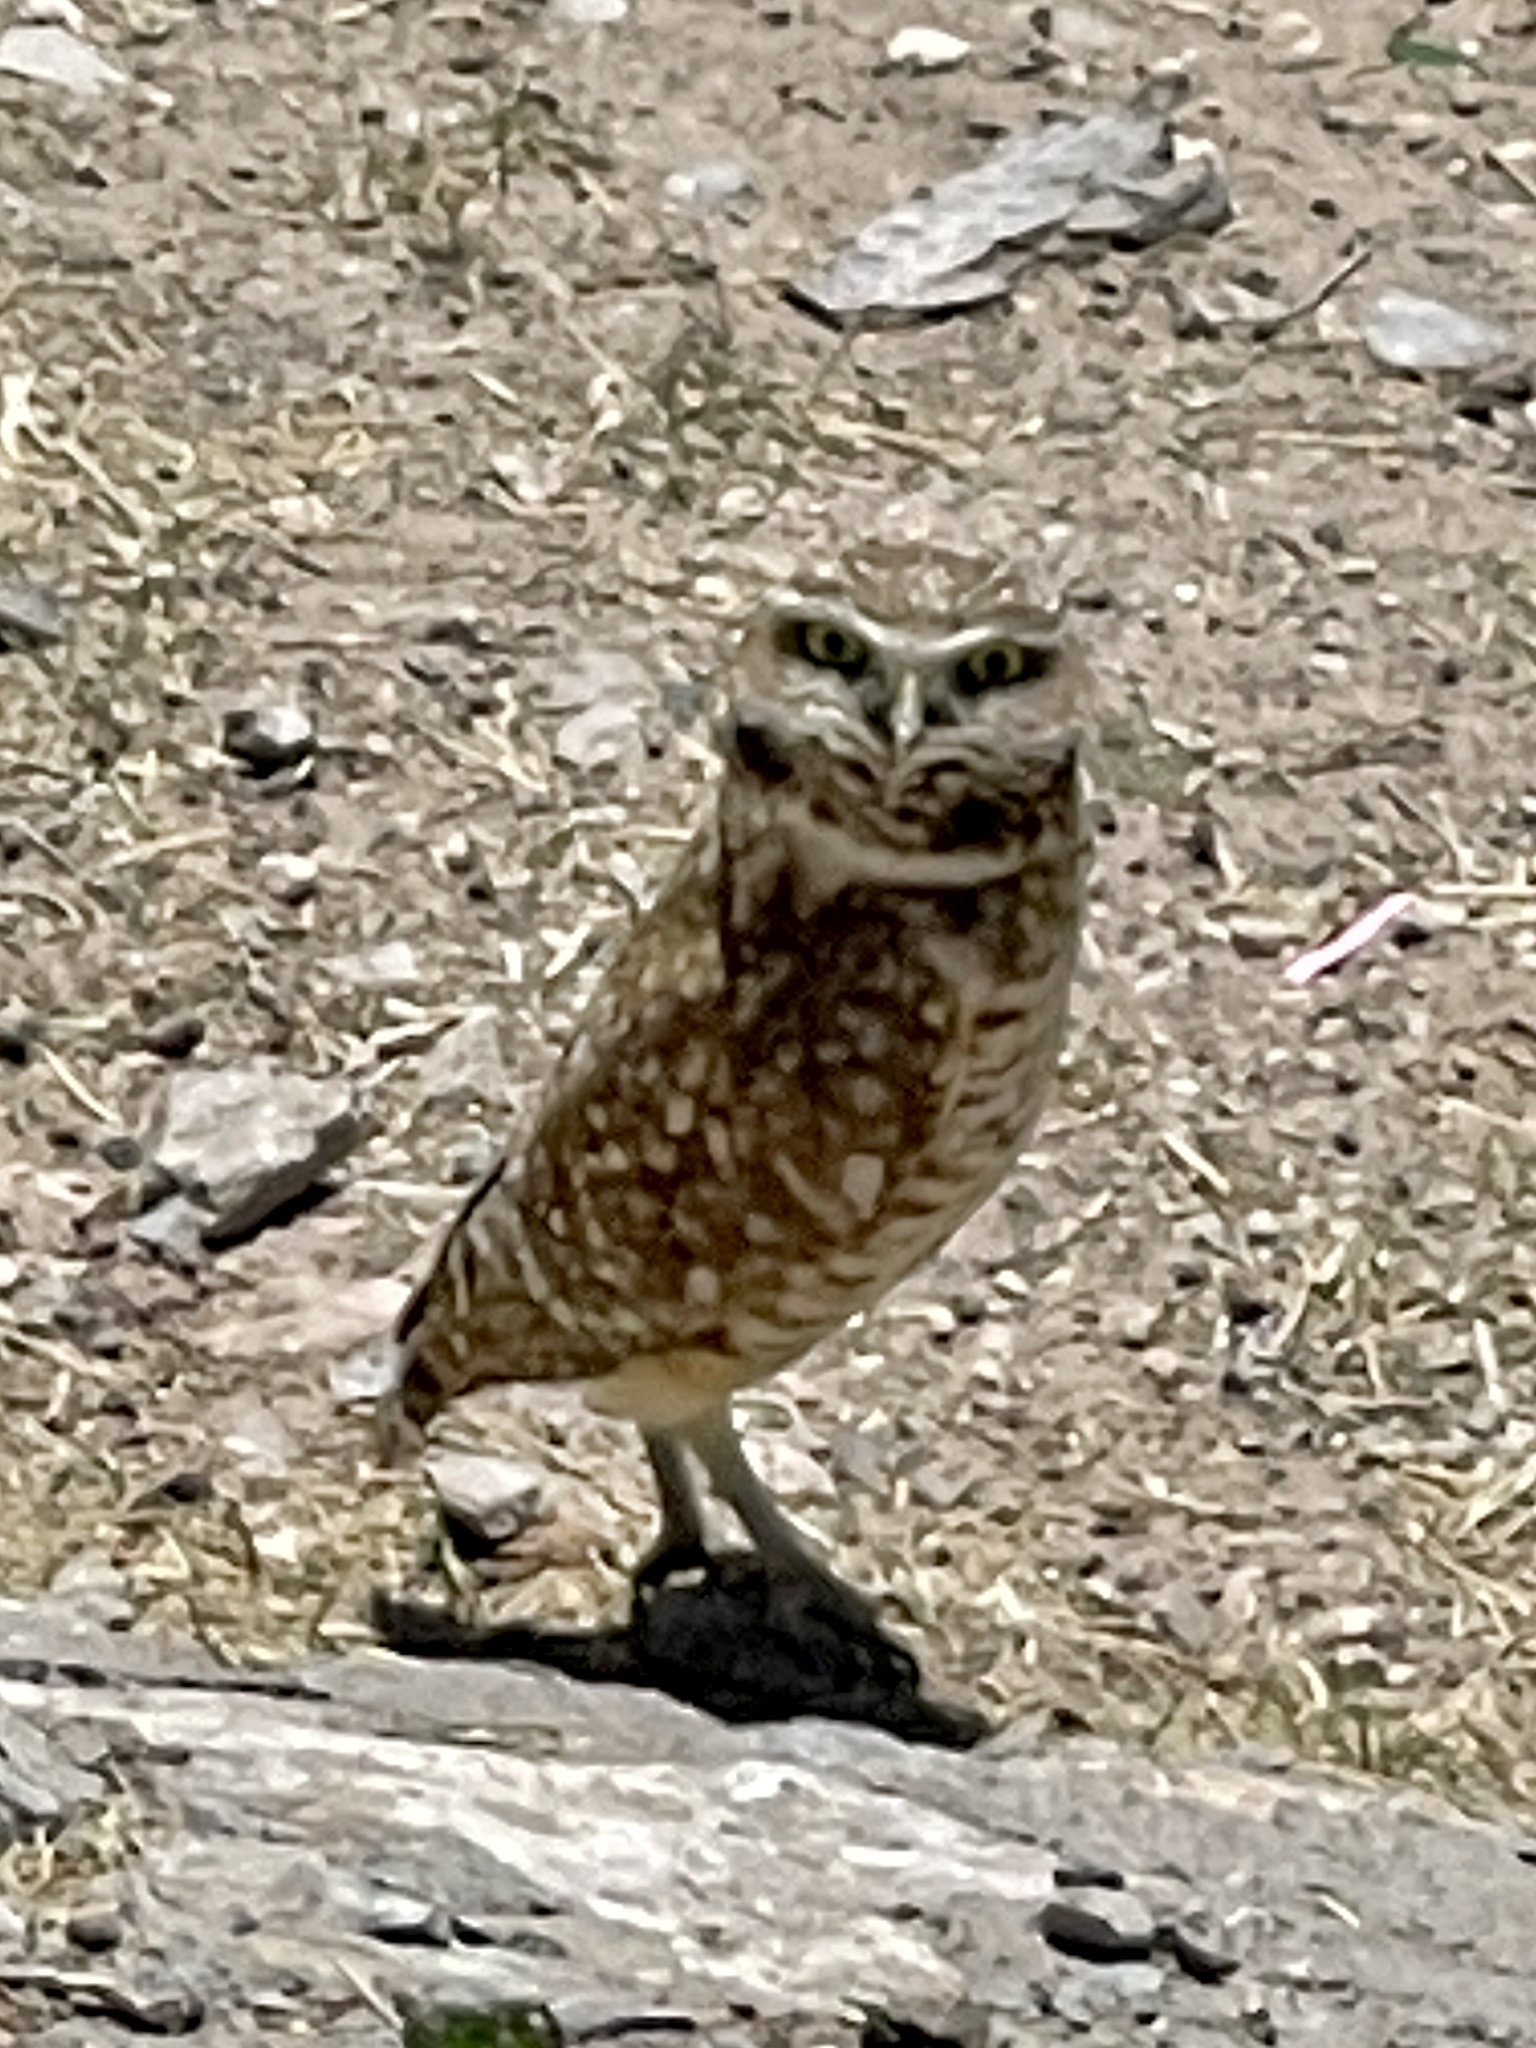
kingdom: Animalia
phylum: Chordata
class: Aves
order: Strigiformes
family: Strigidae
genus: Athene
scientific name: Athene cunicularia
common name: Burrowing owl
